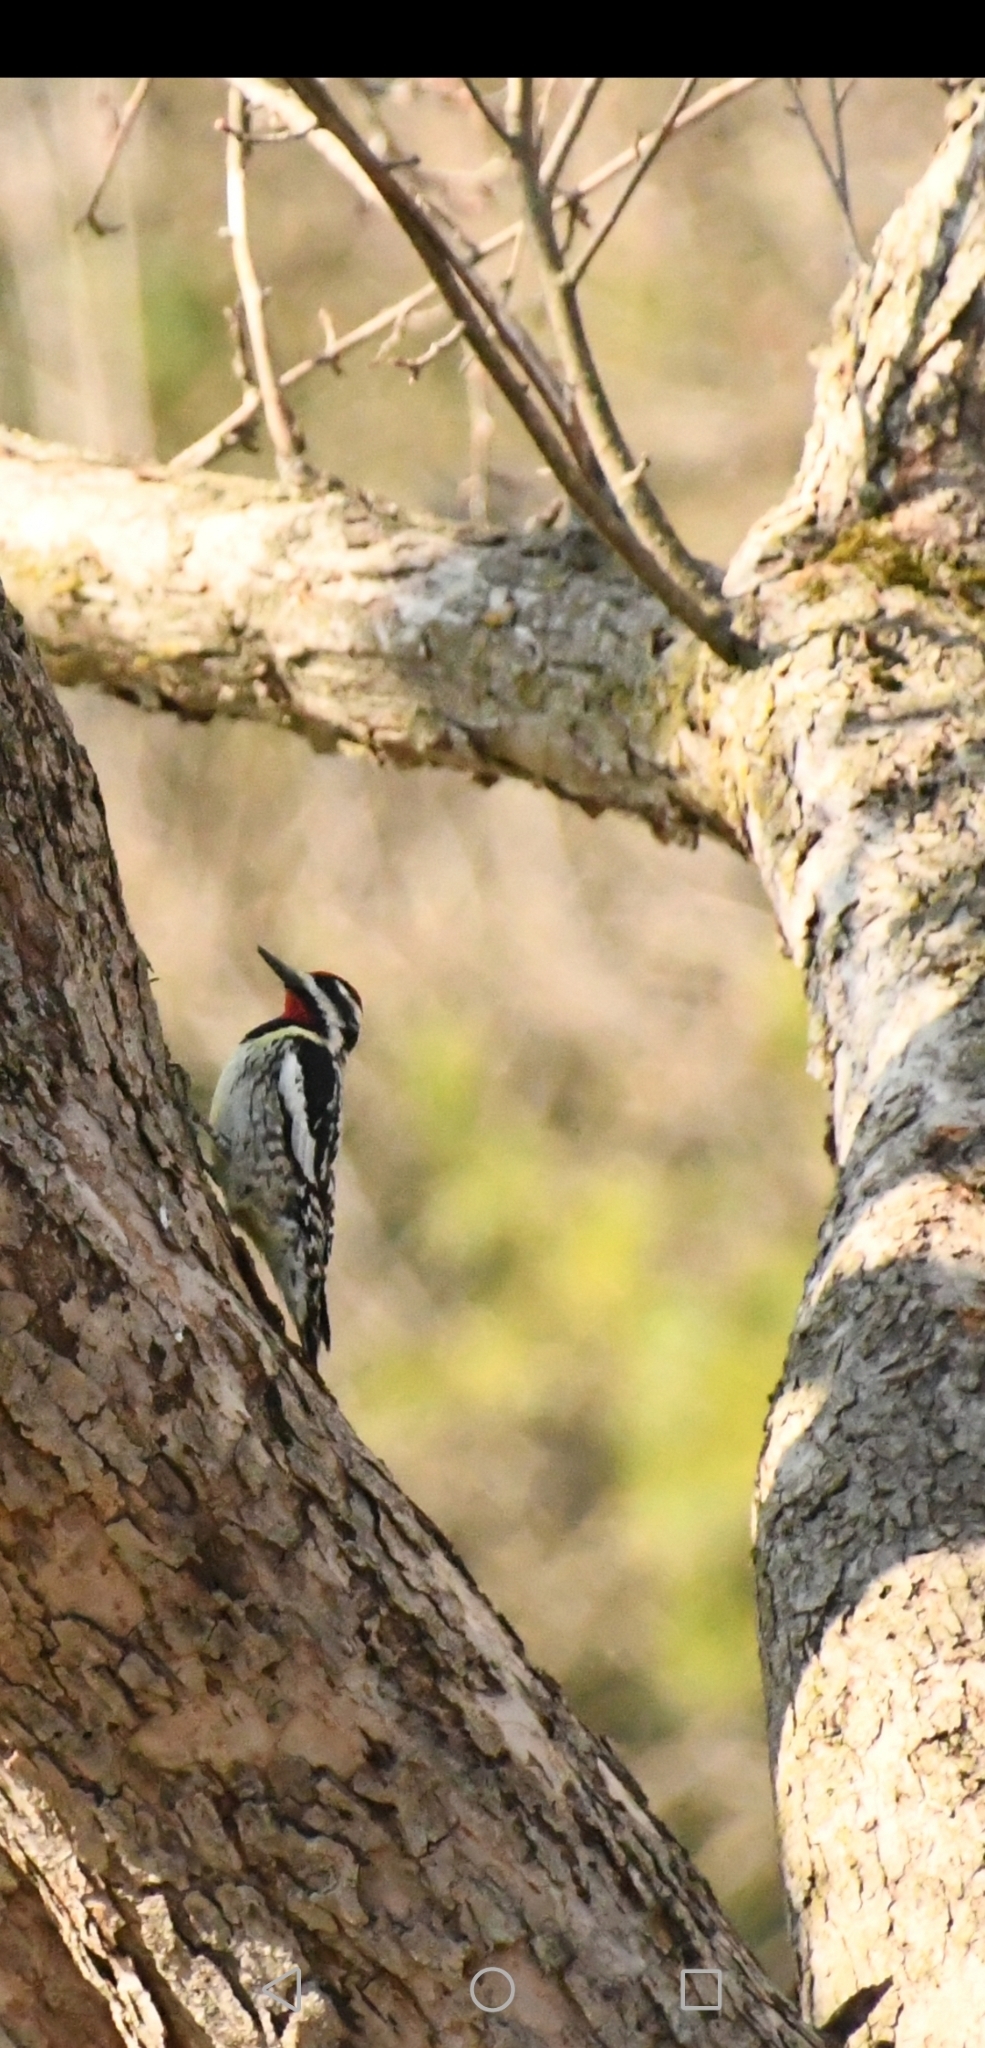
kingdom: Animalia
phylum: Chordata
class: Aves
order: Piciformes
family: Picidae
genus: Sphyrapicus
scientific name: Sphyrapicus varius
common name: Yellow-bellied sapsucker
